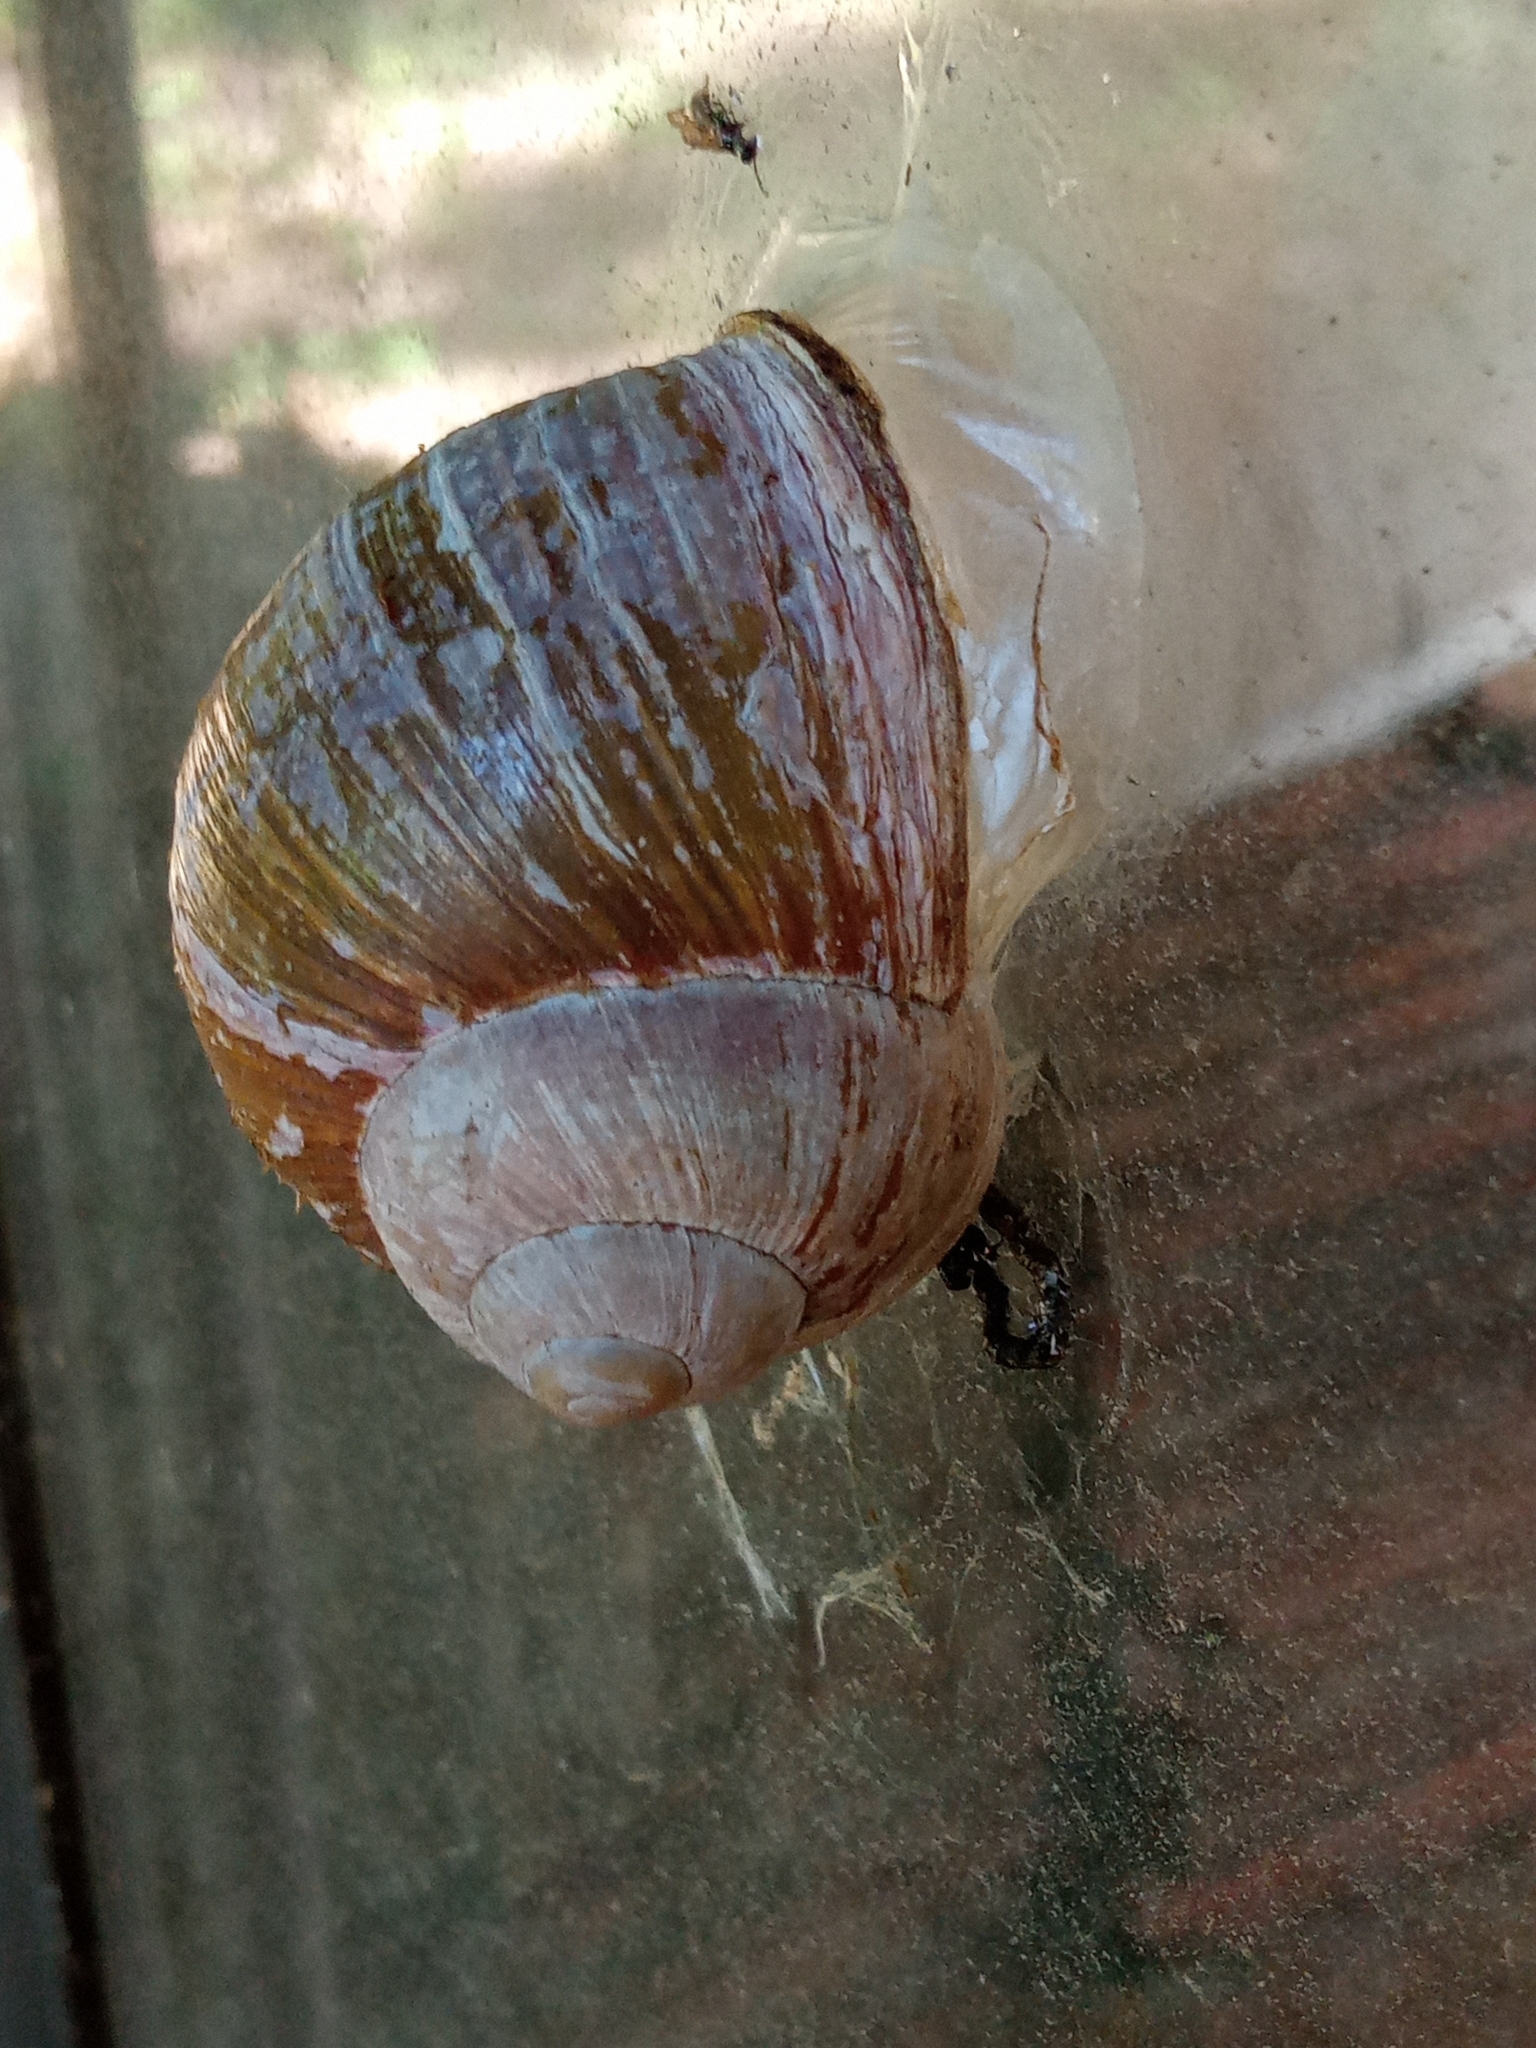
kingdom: Animalia
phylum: Mollusca
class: Gastropoda
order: Stylommatophora
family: Helicidae
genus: Helix
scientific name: Helix pomatia
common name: Roman snail
